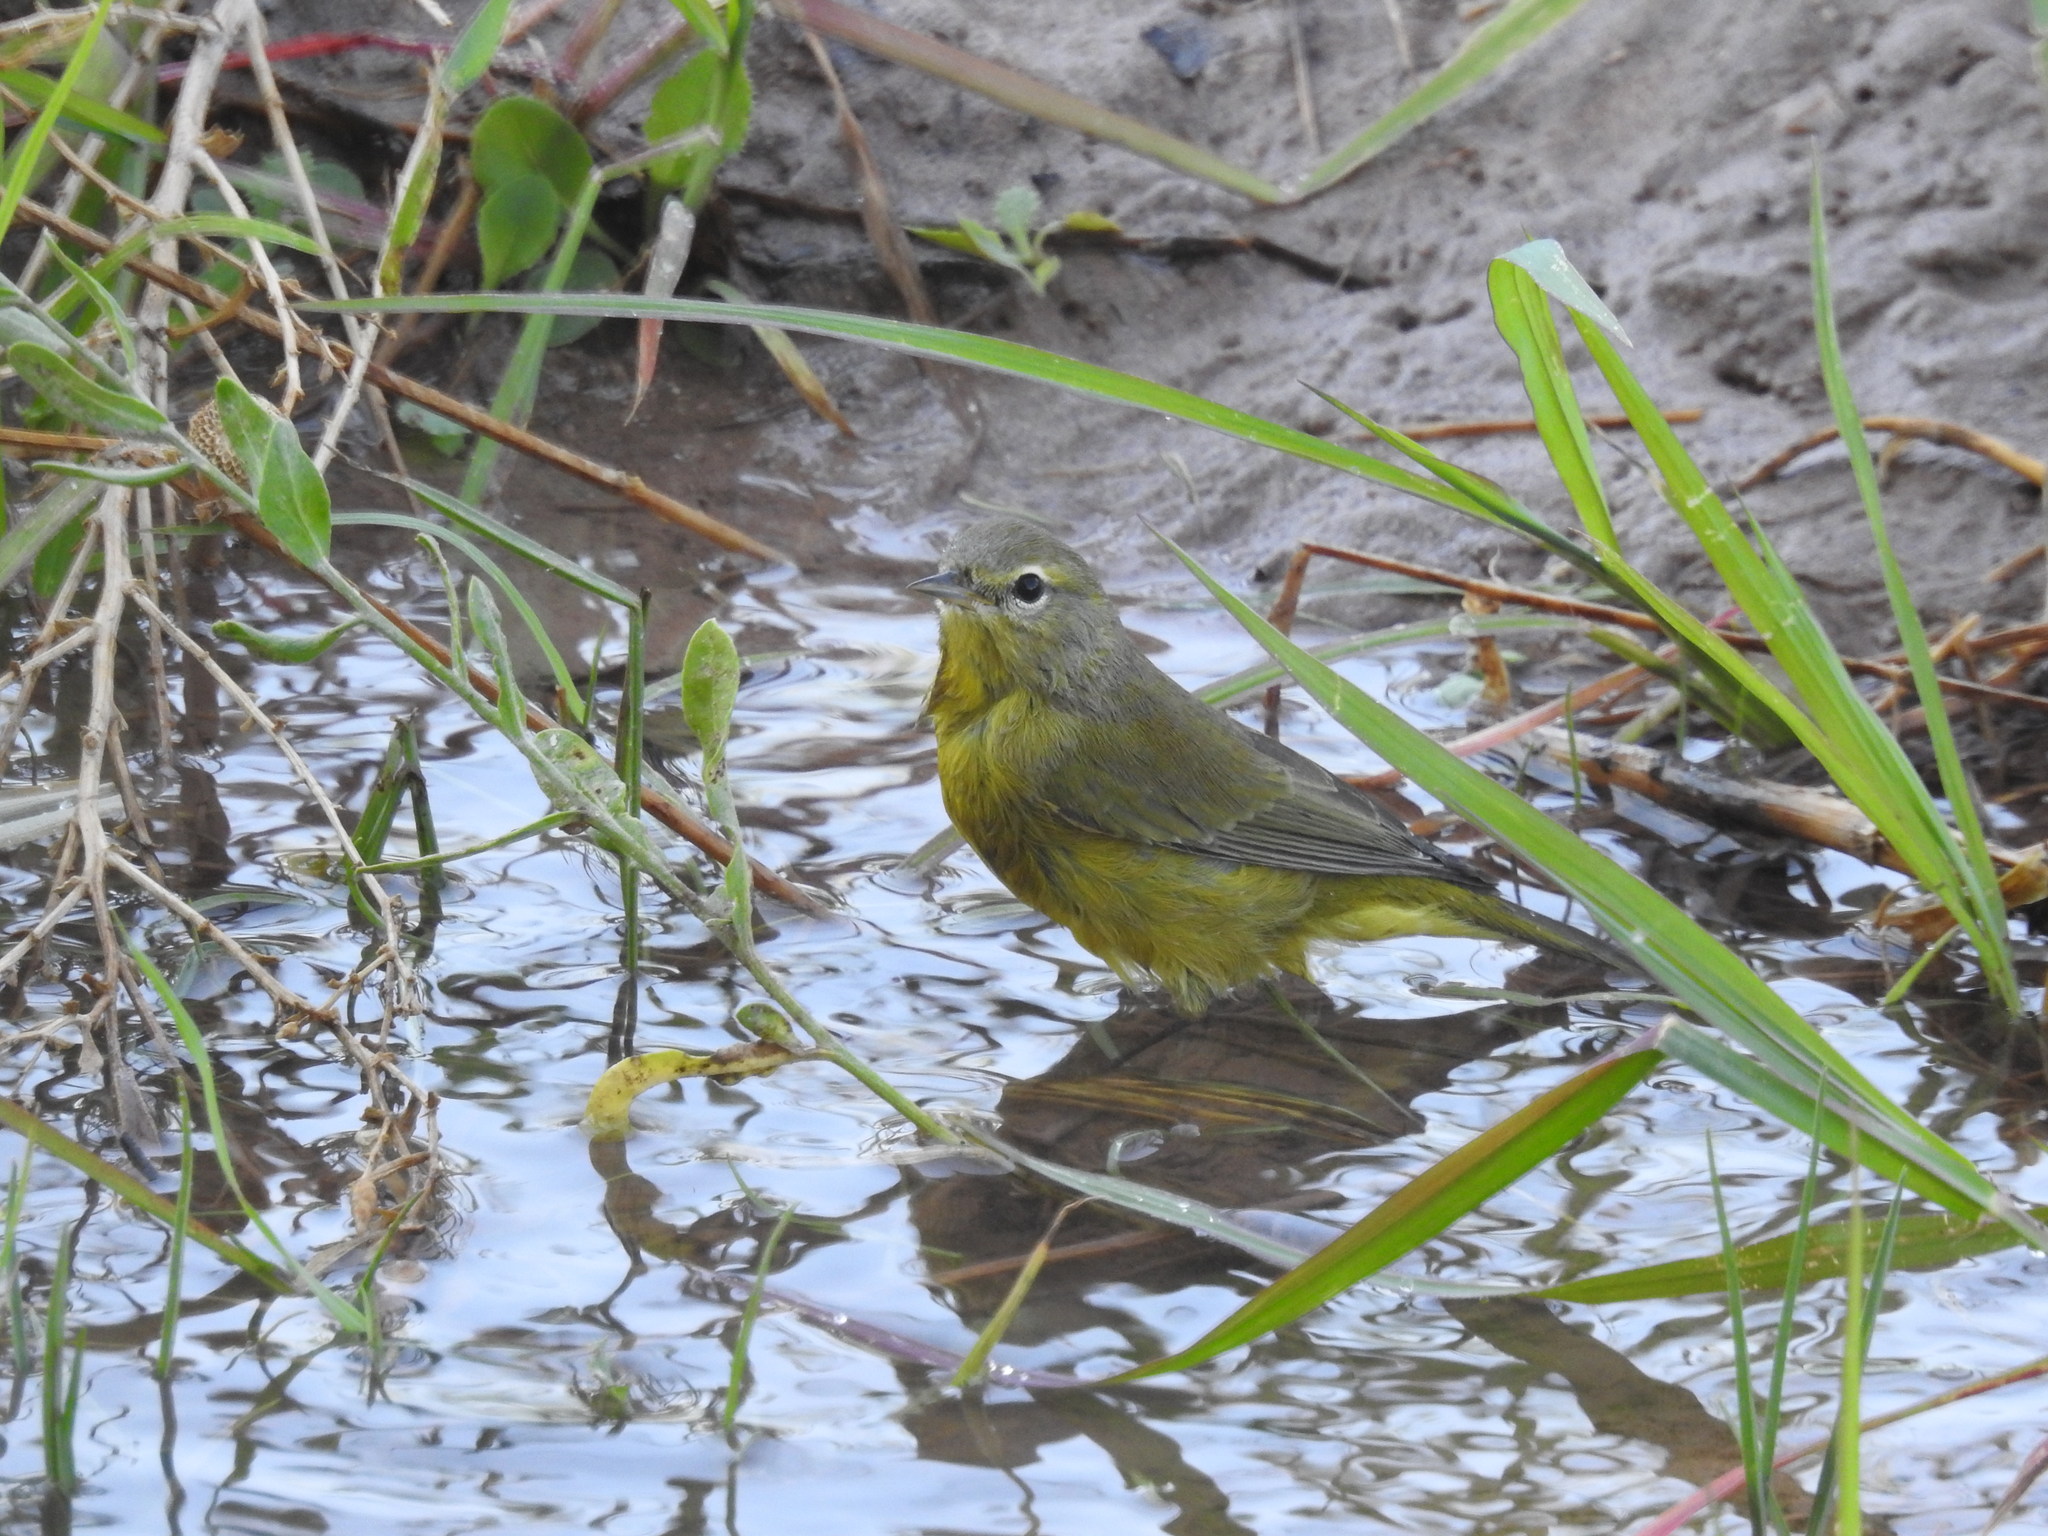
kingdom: Animalia
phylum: Chordata
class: Aves
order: Passeriformes
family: Parulidae
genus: Leiothlypis
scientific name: Leiothlypis celata
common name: Orange-crowned warbler
